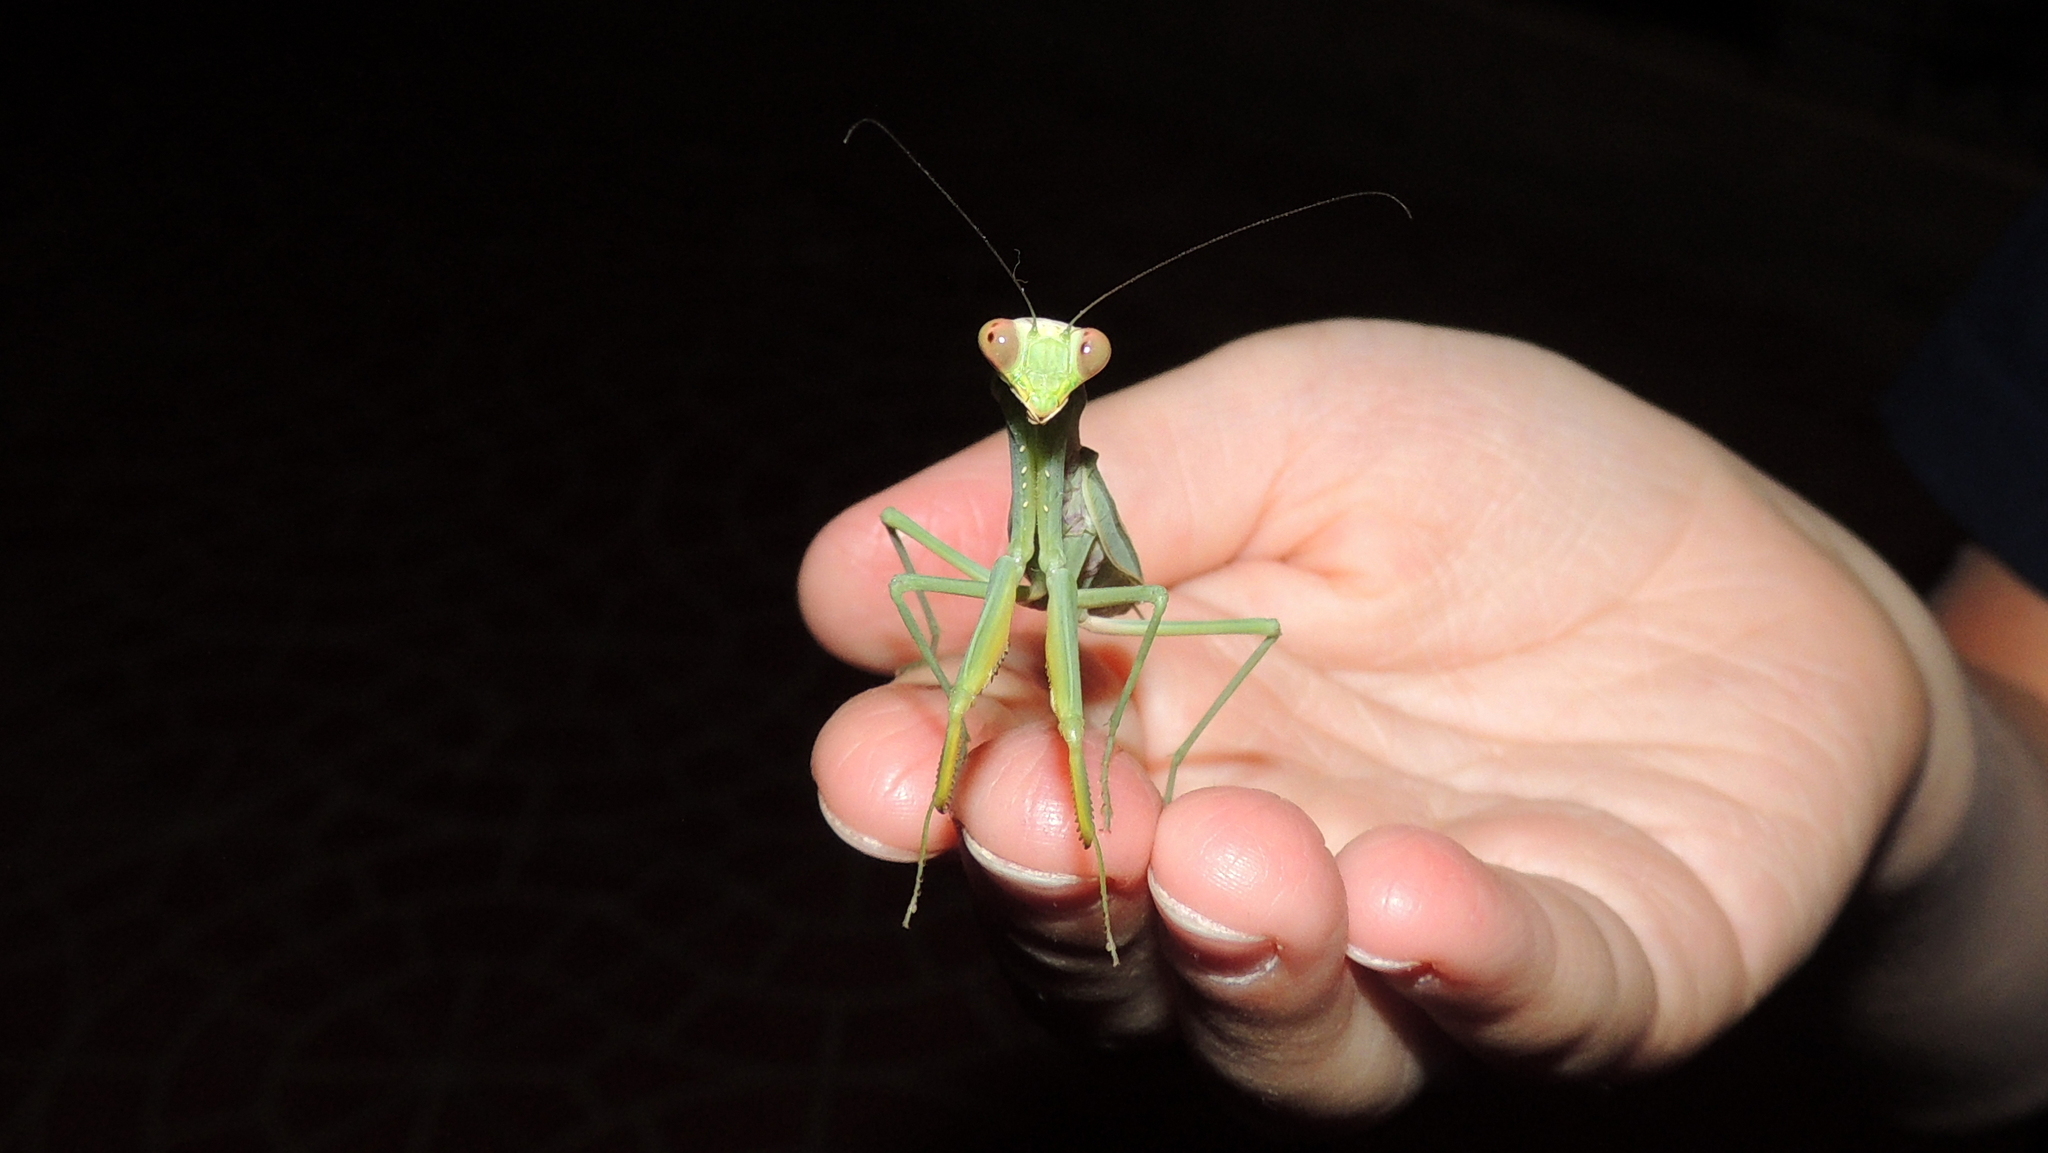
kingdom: Animalia
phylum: Arthropoda
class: Insecta
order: Mantodea
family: Mantidae
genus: Hierodula
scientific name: Hierodula tenuidentata
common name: Giant asian mantis
